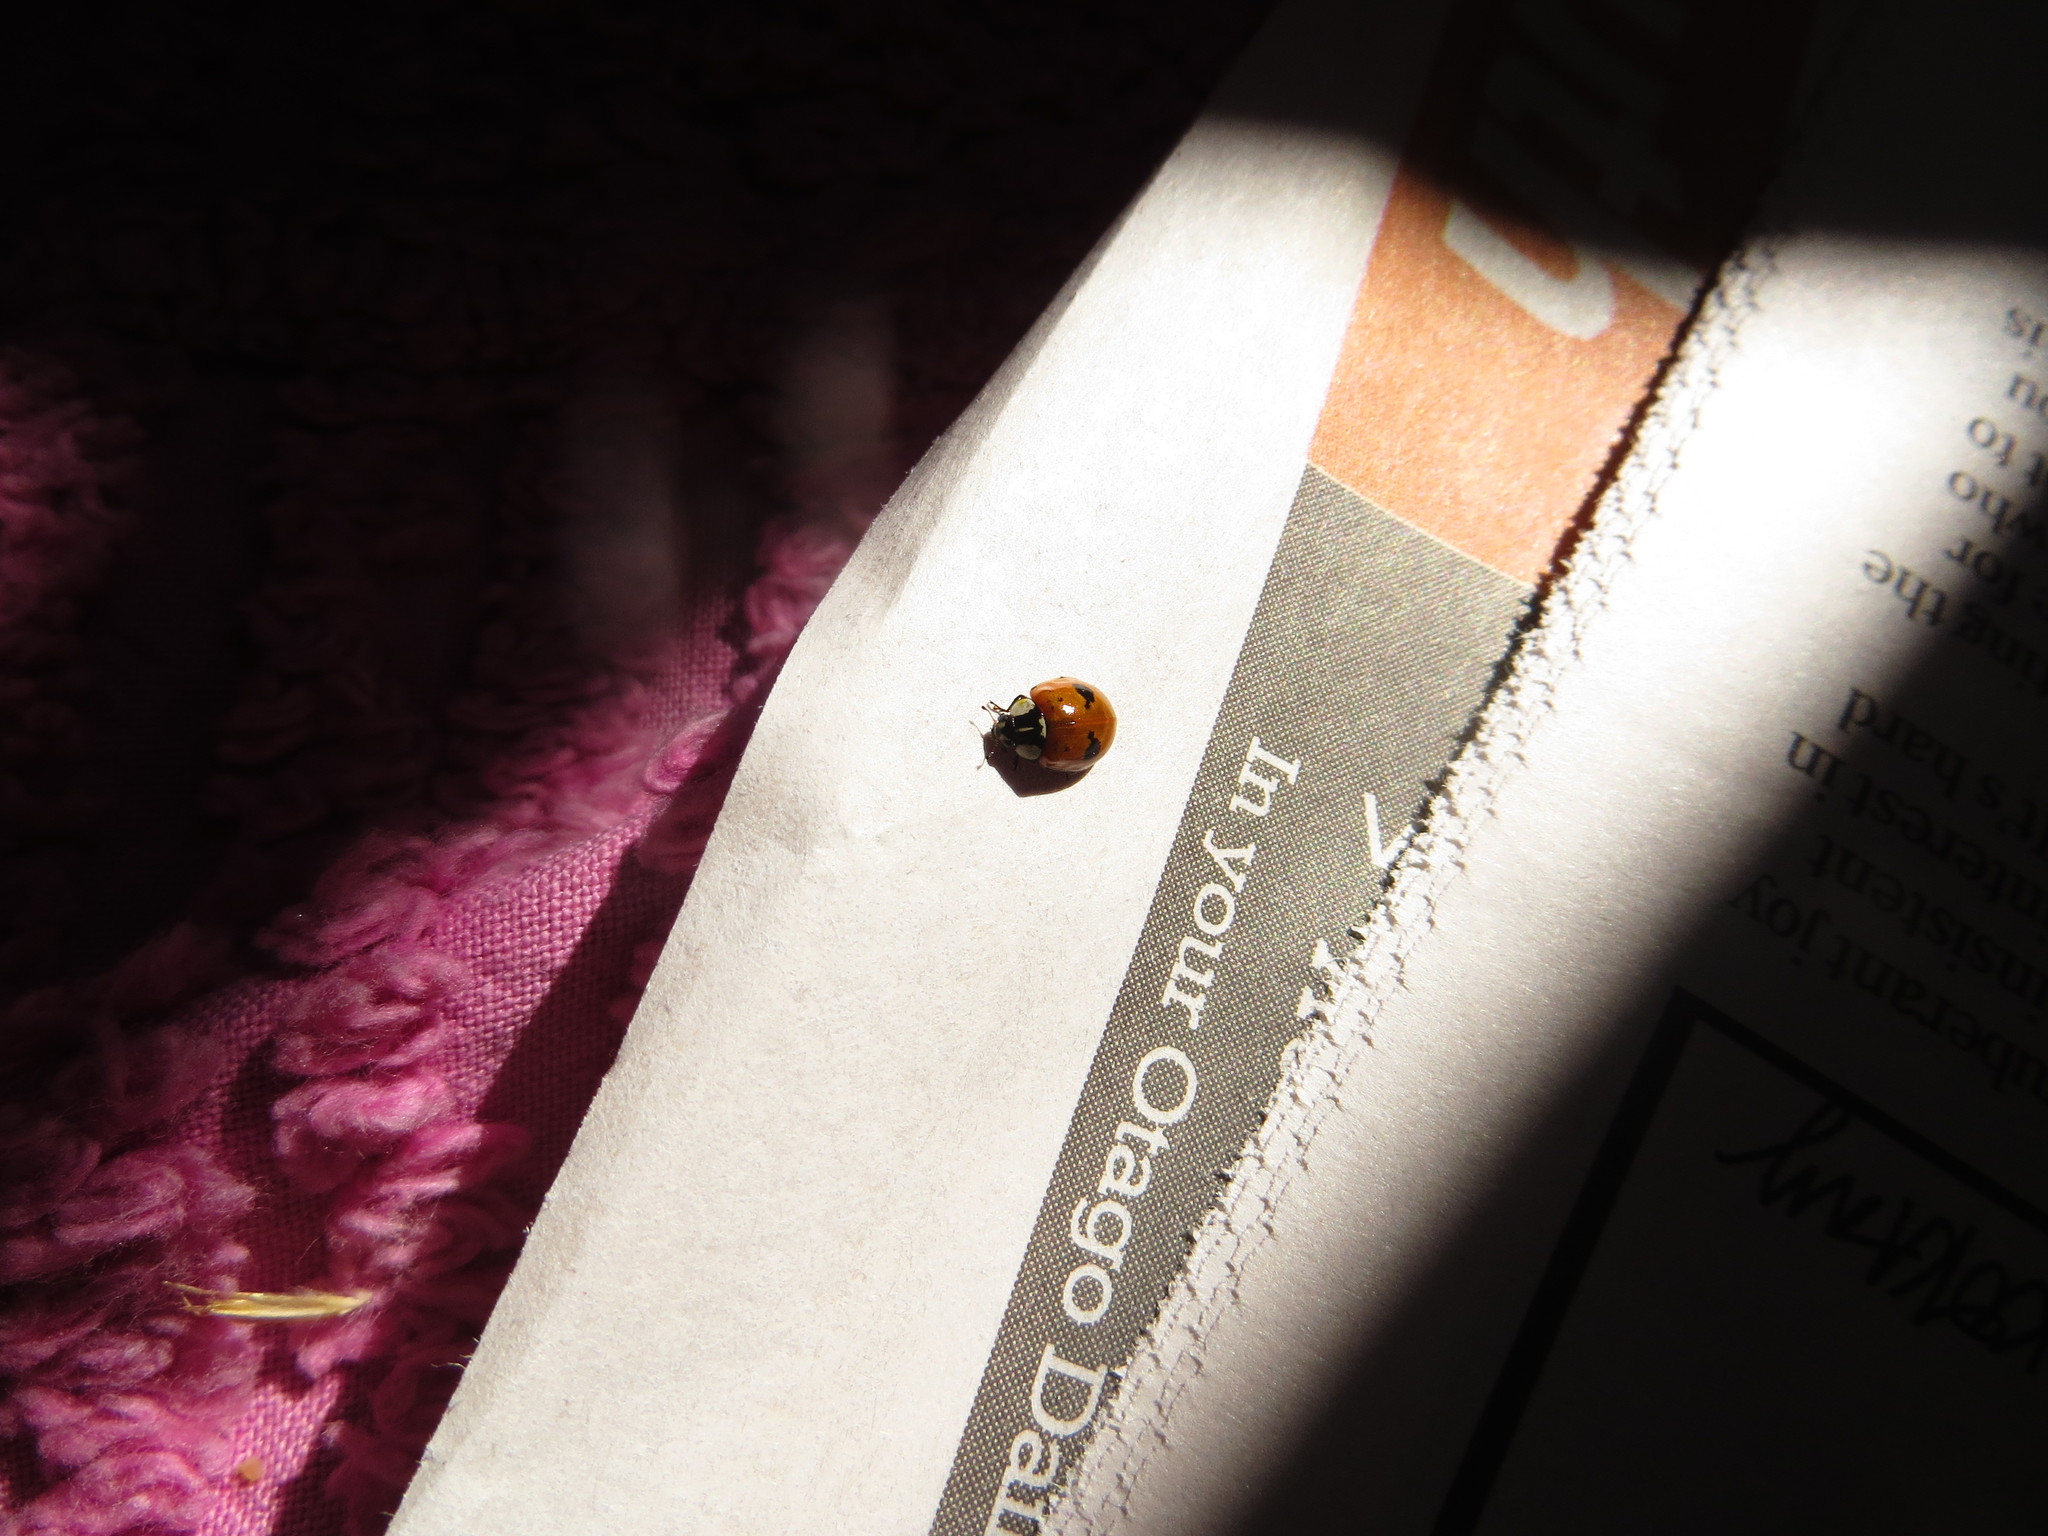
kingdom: Animalia
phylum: Arthropoda
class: Insecta
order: Coleoptera
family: Coccinellidae
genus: Adalia
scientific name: Adalia bipunctata
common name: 2-spot ladybird
